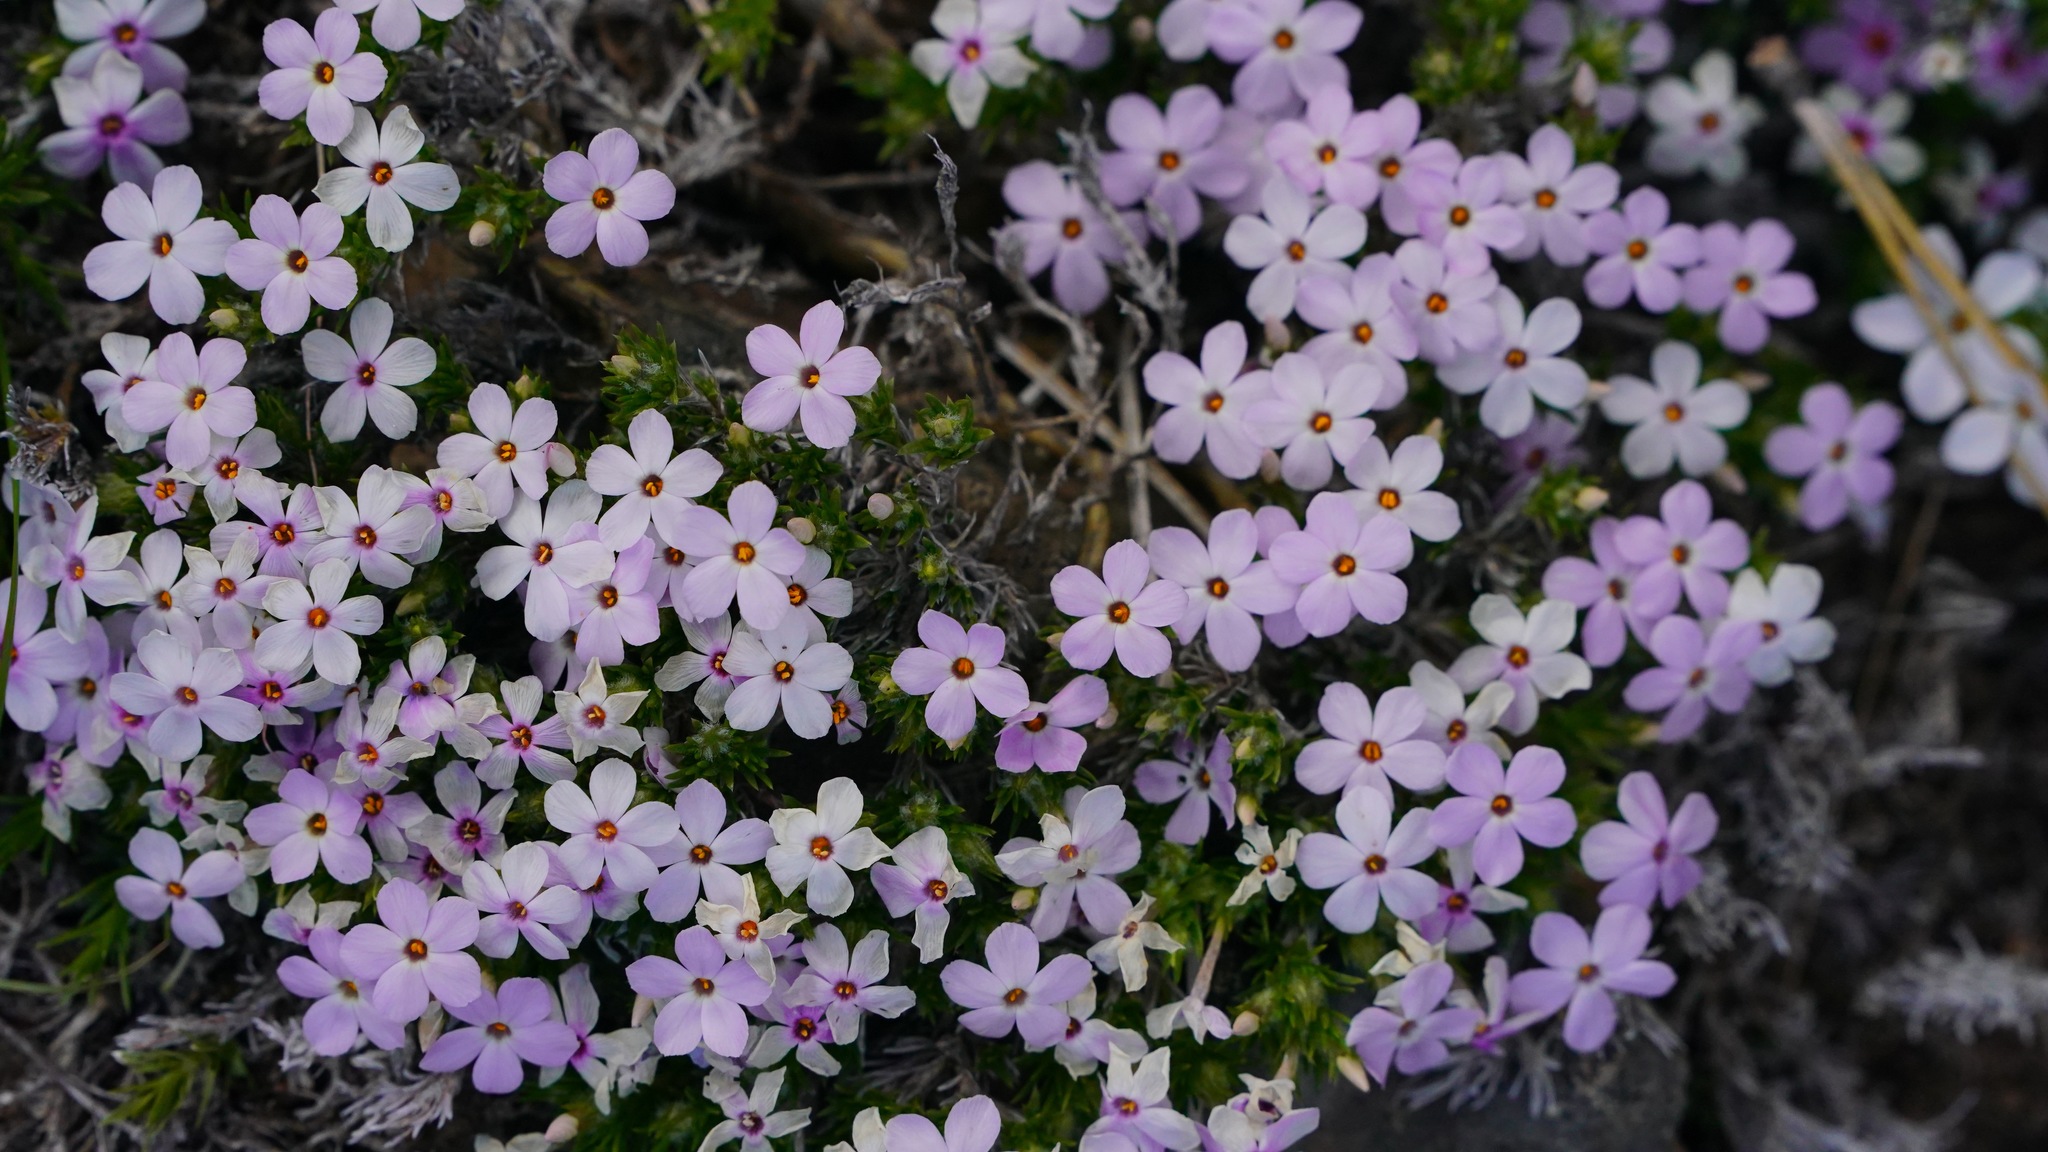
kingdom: Plantae
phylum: Tracheophyta
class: Magnoliopsida
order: Ericales
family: Polemoniaceae
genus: Phlox
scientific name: Phlox diffusa
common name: Mat phlox
